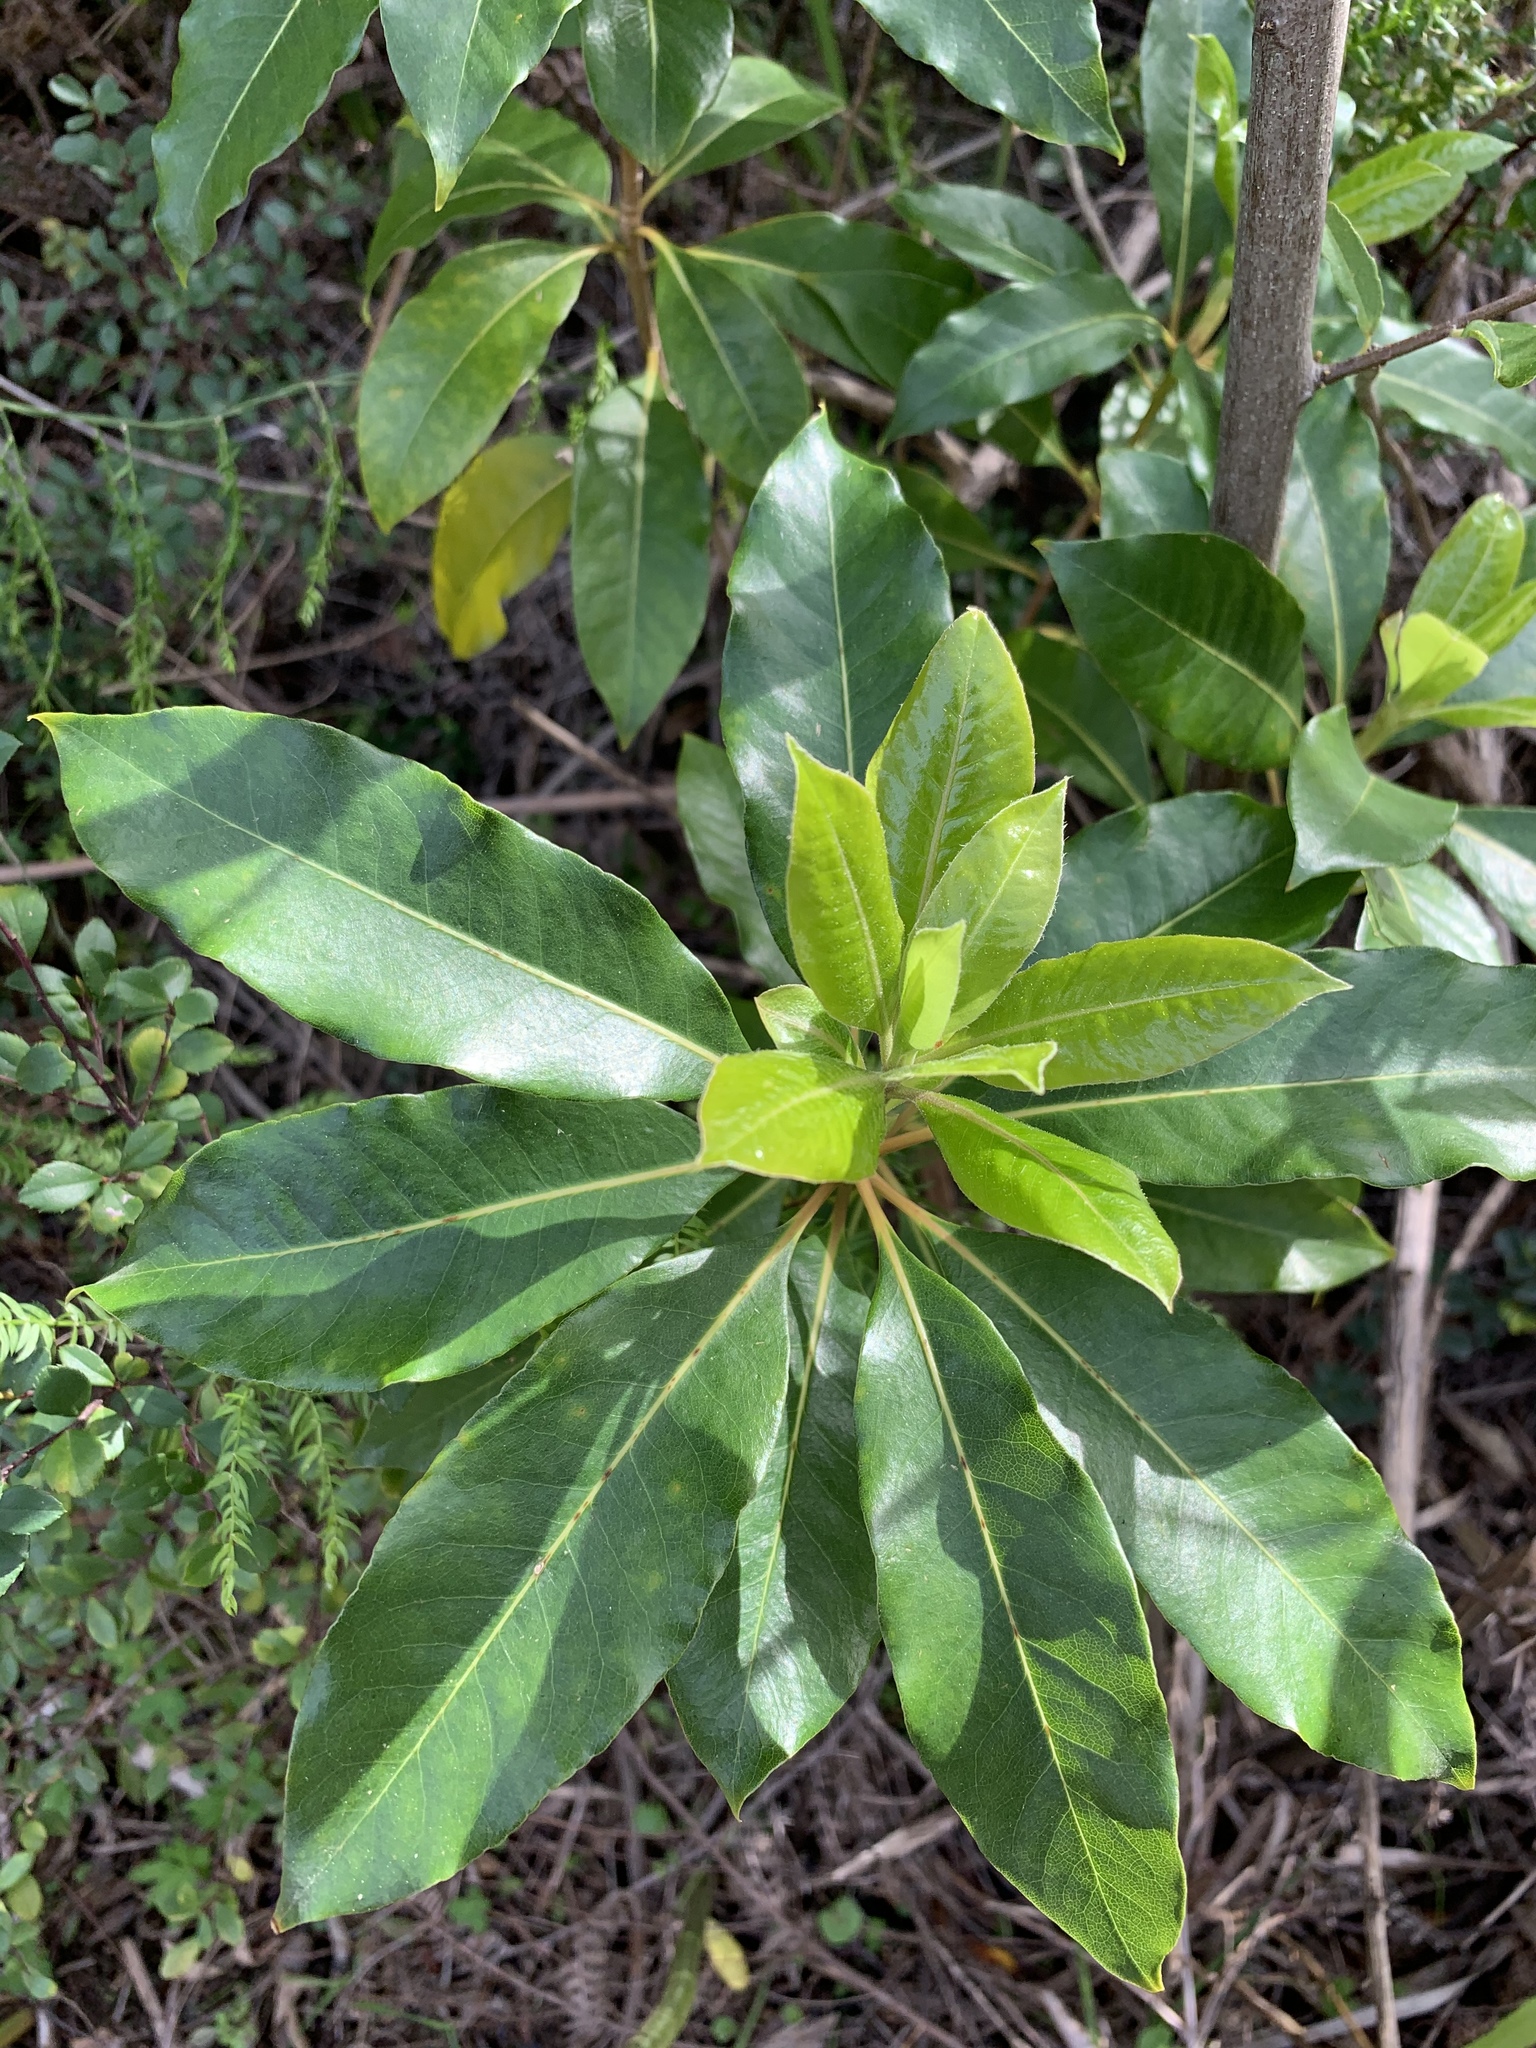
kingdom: Plantae
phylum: Tracheophyta
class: Magnoliopsida
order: Apiales
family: Pittosporaceae
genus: Pittosporum
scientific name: Pittosporum undulatum
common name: Australian cheesewood
